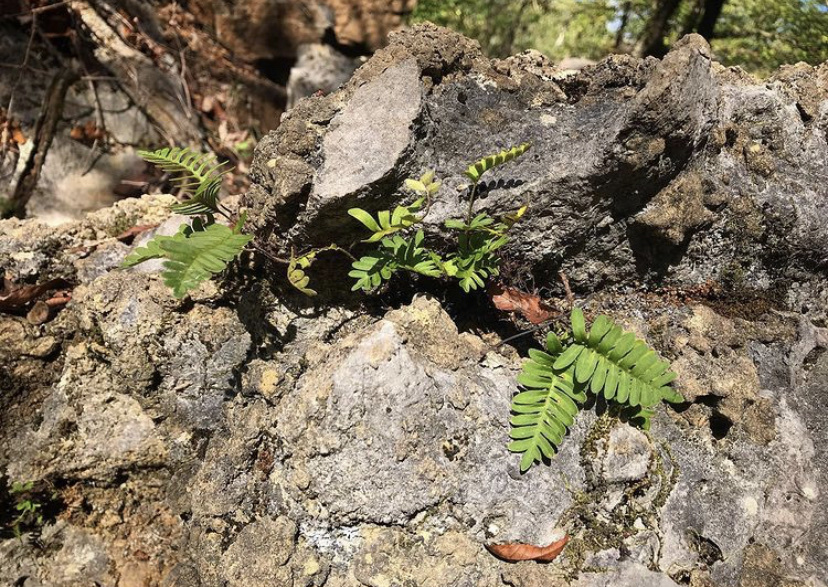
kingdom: Plantae
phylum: Tracheophyta
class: Polypodiopsida
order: Polypodiales
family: Polypodiaceae
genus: Pleopeltis
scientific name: Pleopeltis michauxiana
